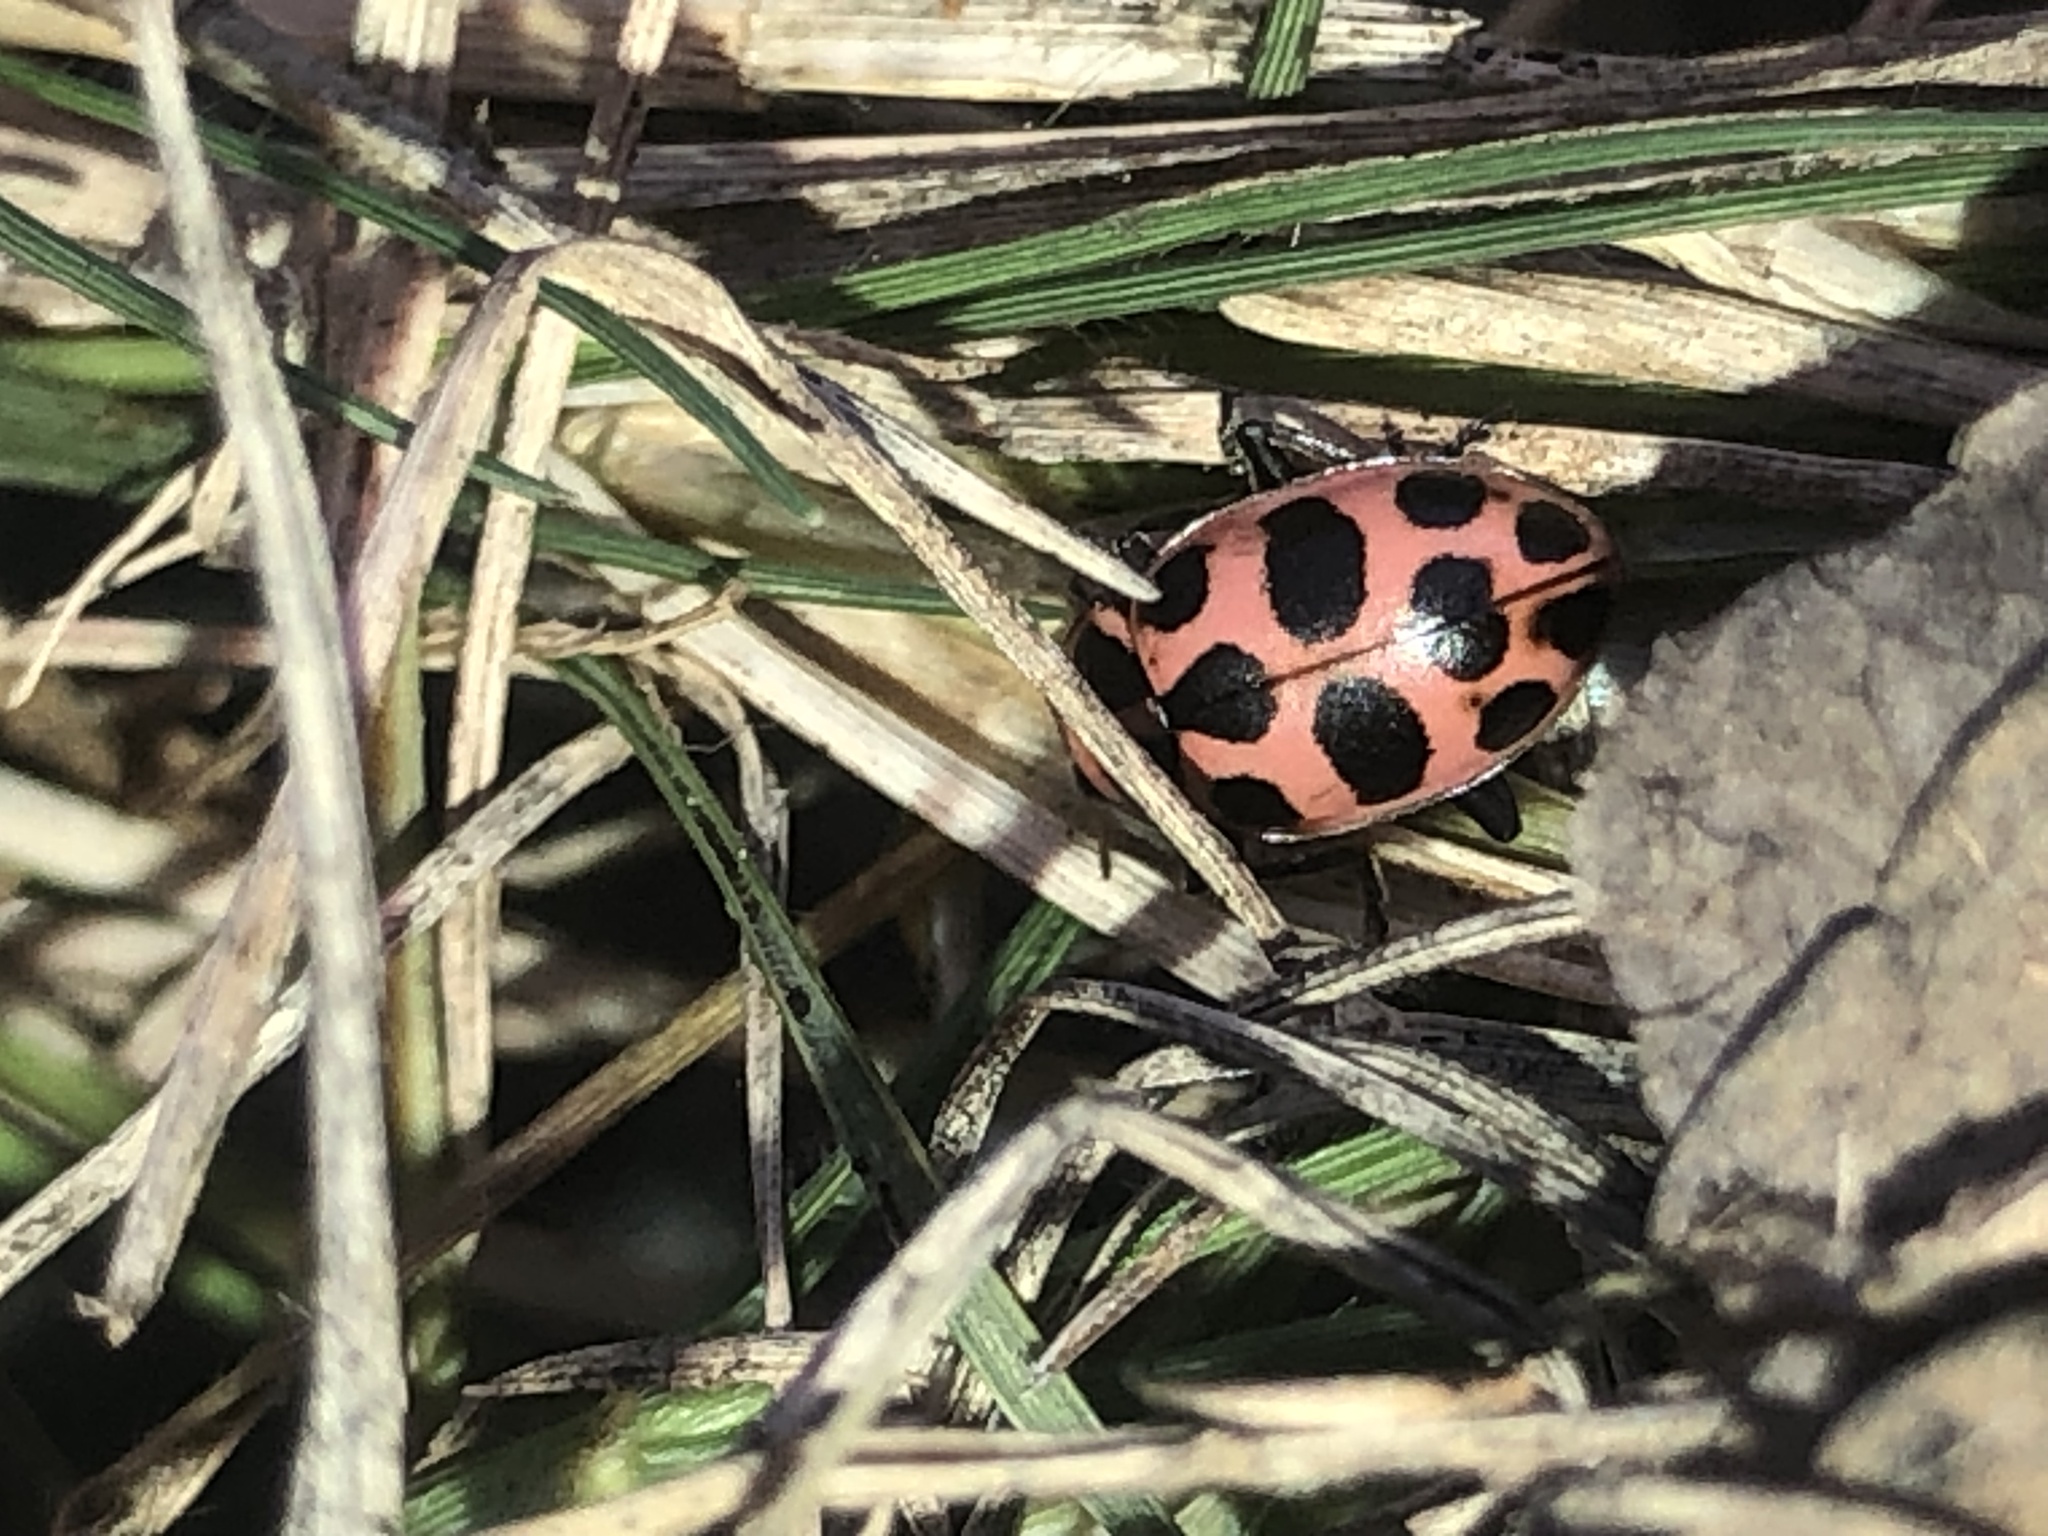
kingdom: Animalia
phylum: Arthropoda
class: Insecta
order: Coleoptera
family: Coccinellidae
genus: Coleomegilla
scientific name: Coleomegilla maculata
